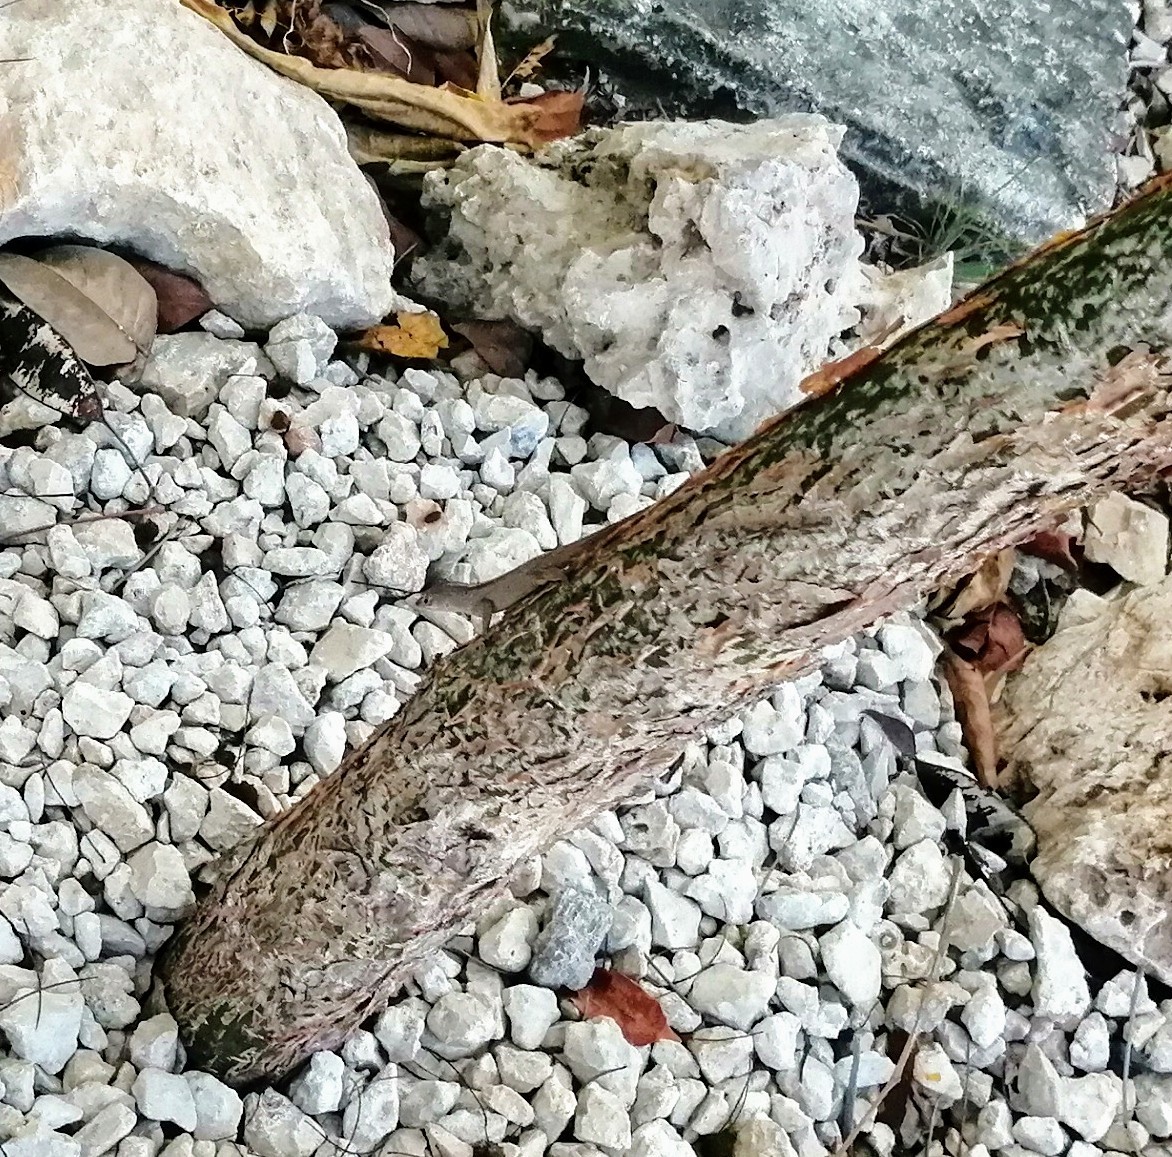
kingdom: Animalia
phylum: Chordata
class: Squamata
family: Dactyloidae
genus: Anolis
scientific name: Anolis sagrei
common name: Brown anole
